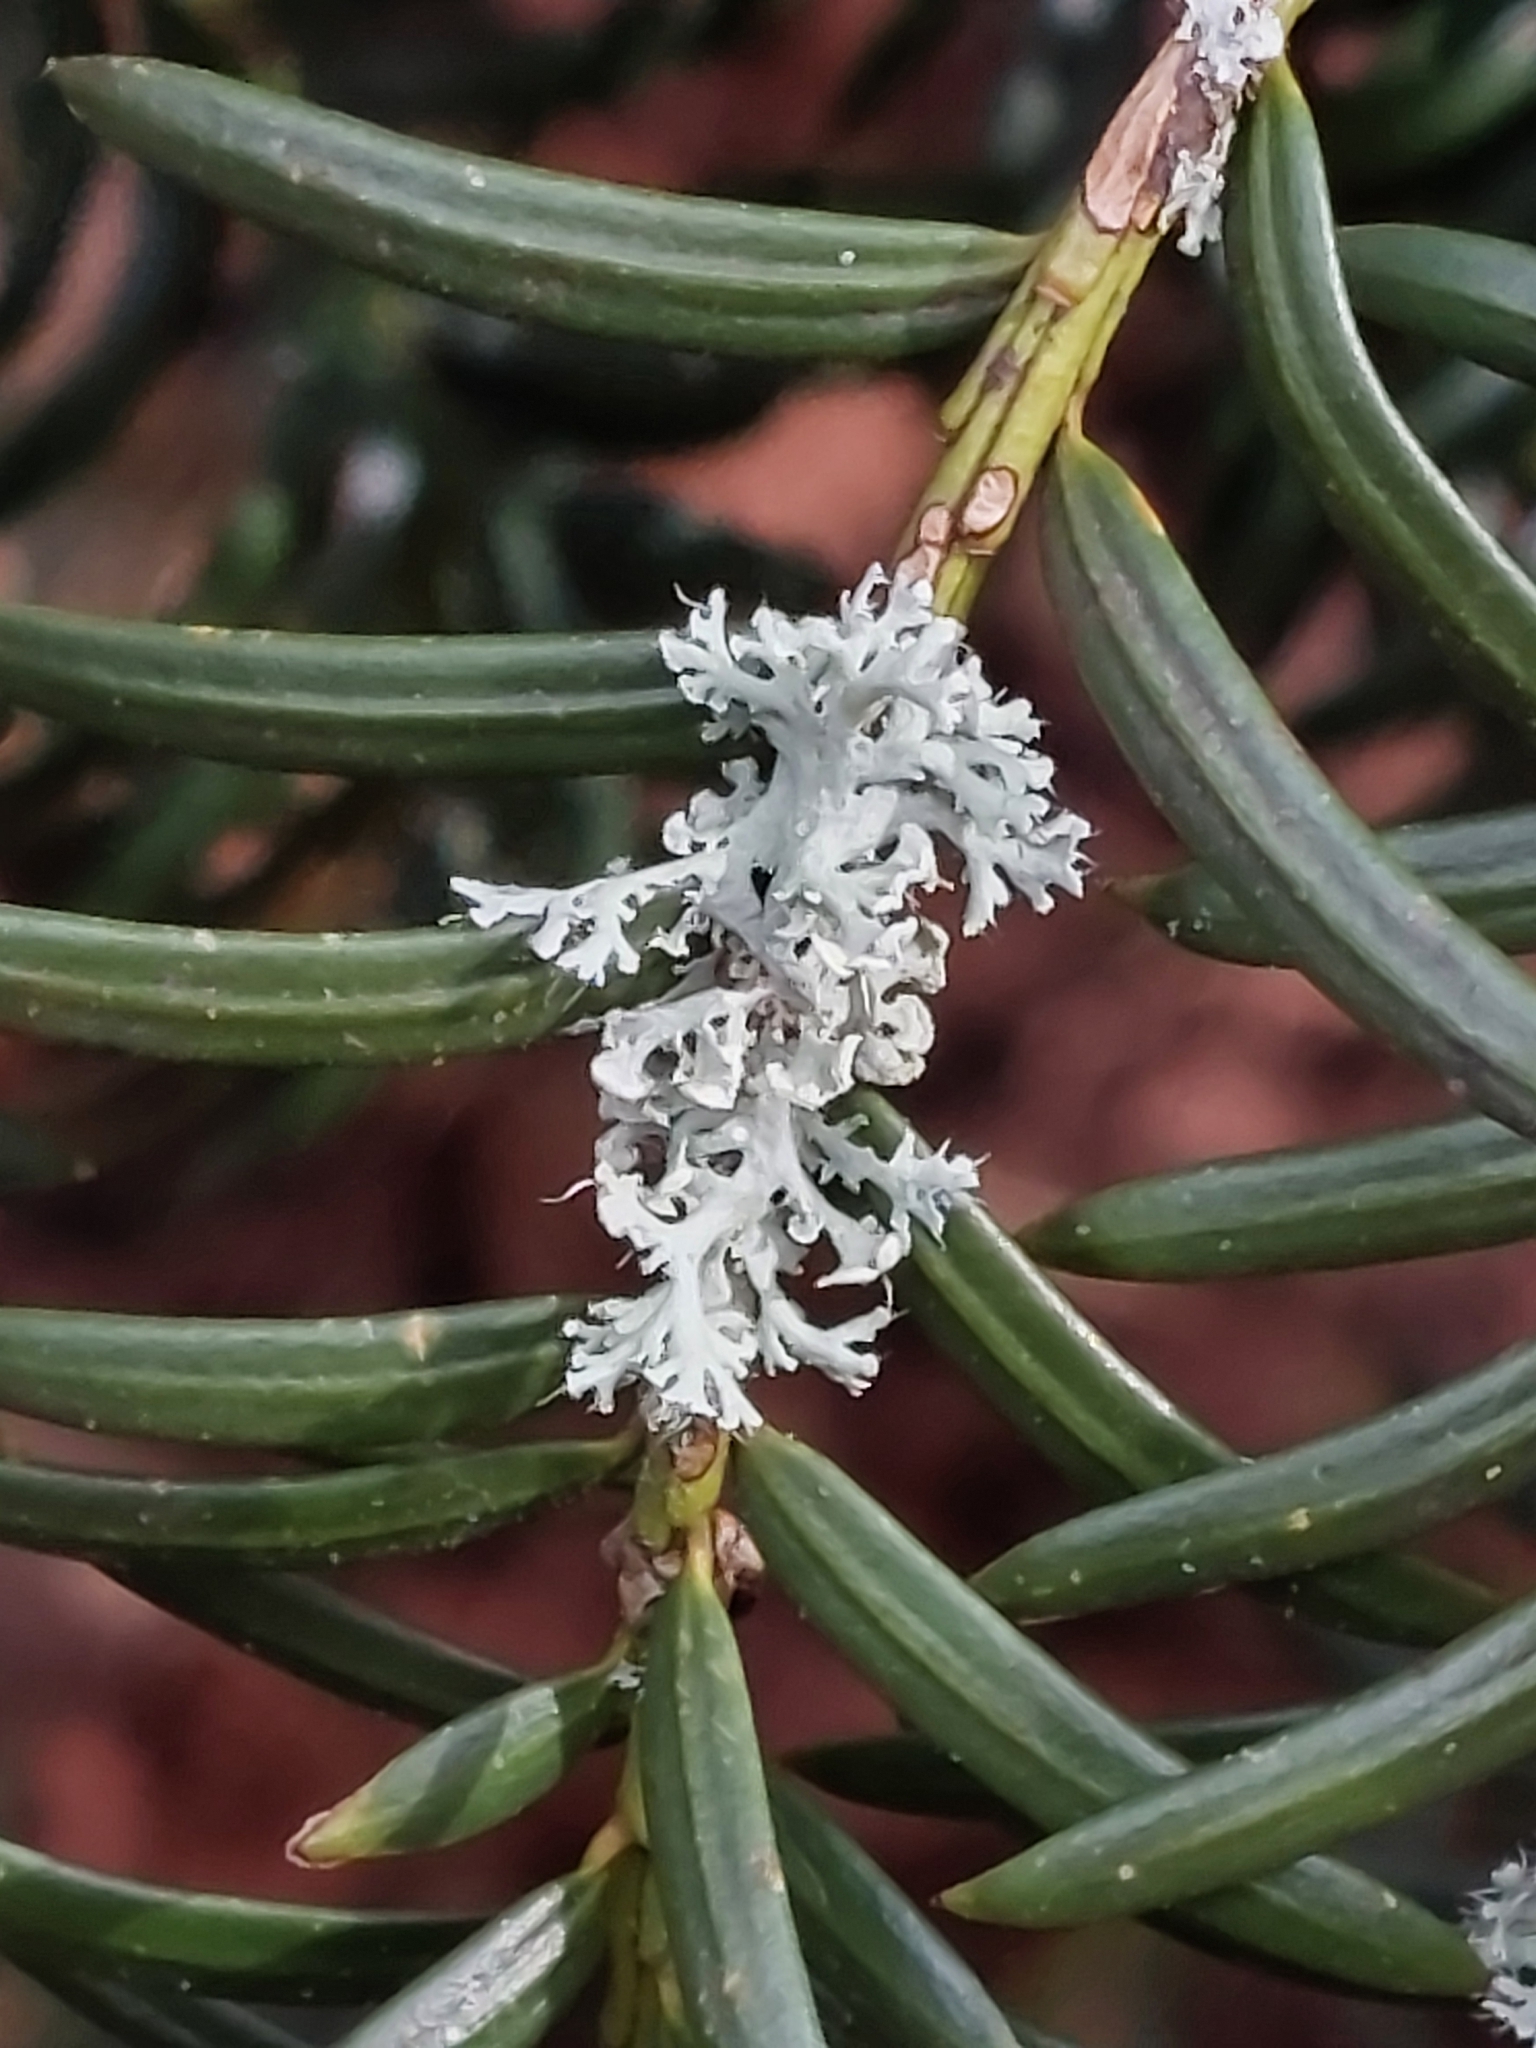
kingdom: Fungi
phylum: Ascomycota
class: Lecanoromycetes
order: Caliciales
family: Physciaceae
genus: Physcia
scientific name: Physcia tenella
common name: Fringed rosette lichen
